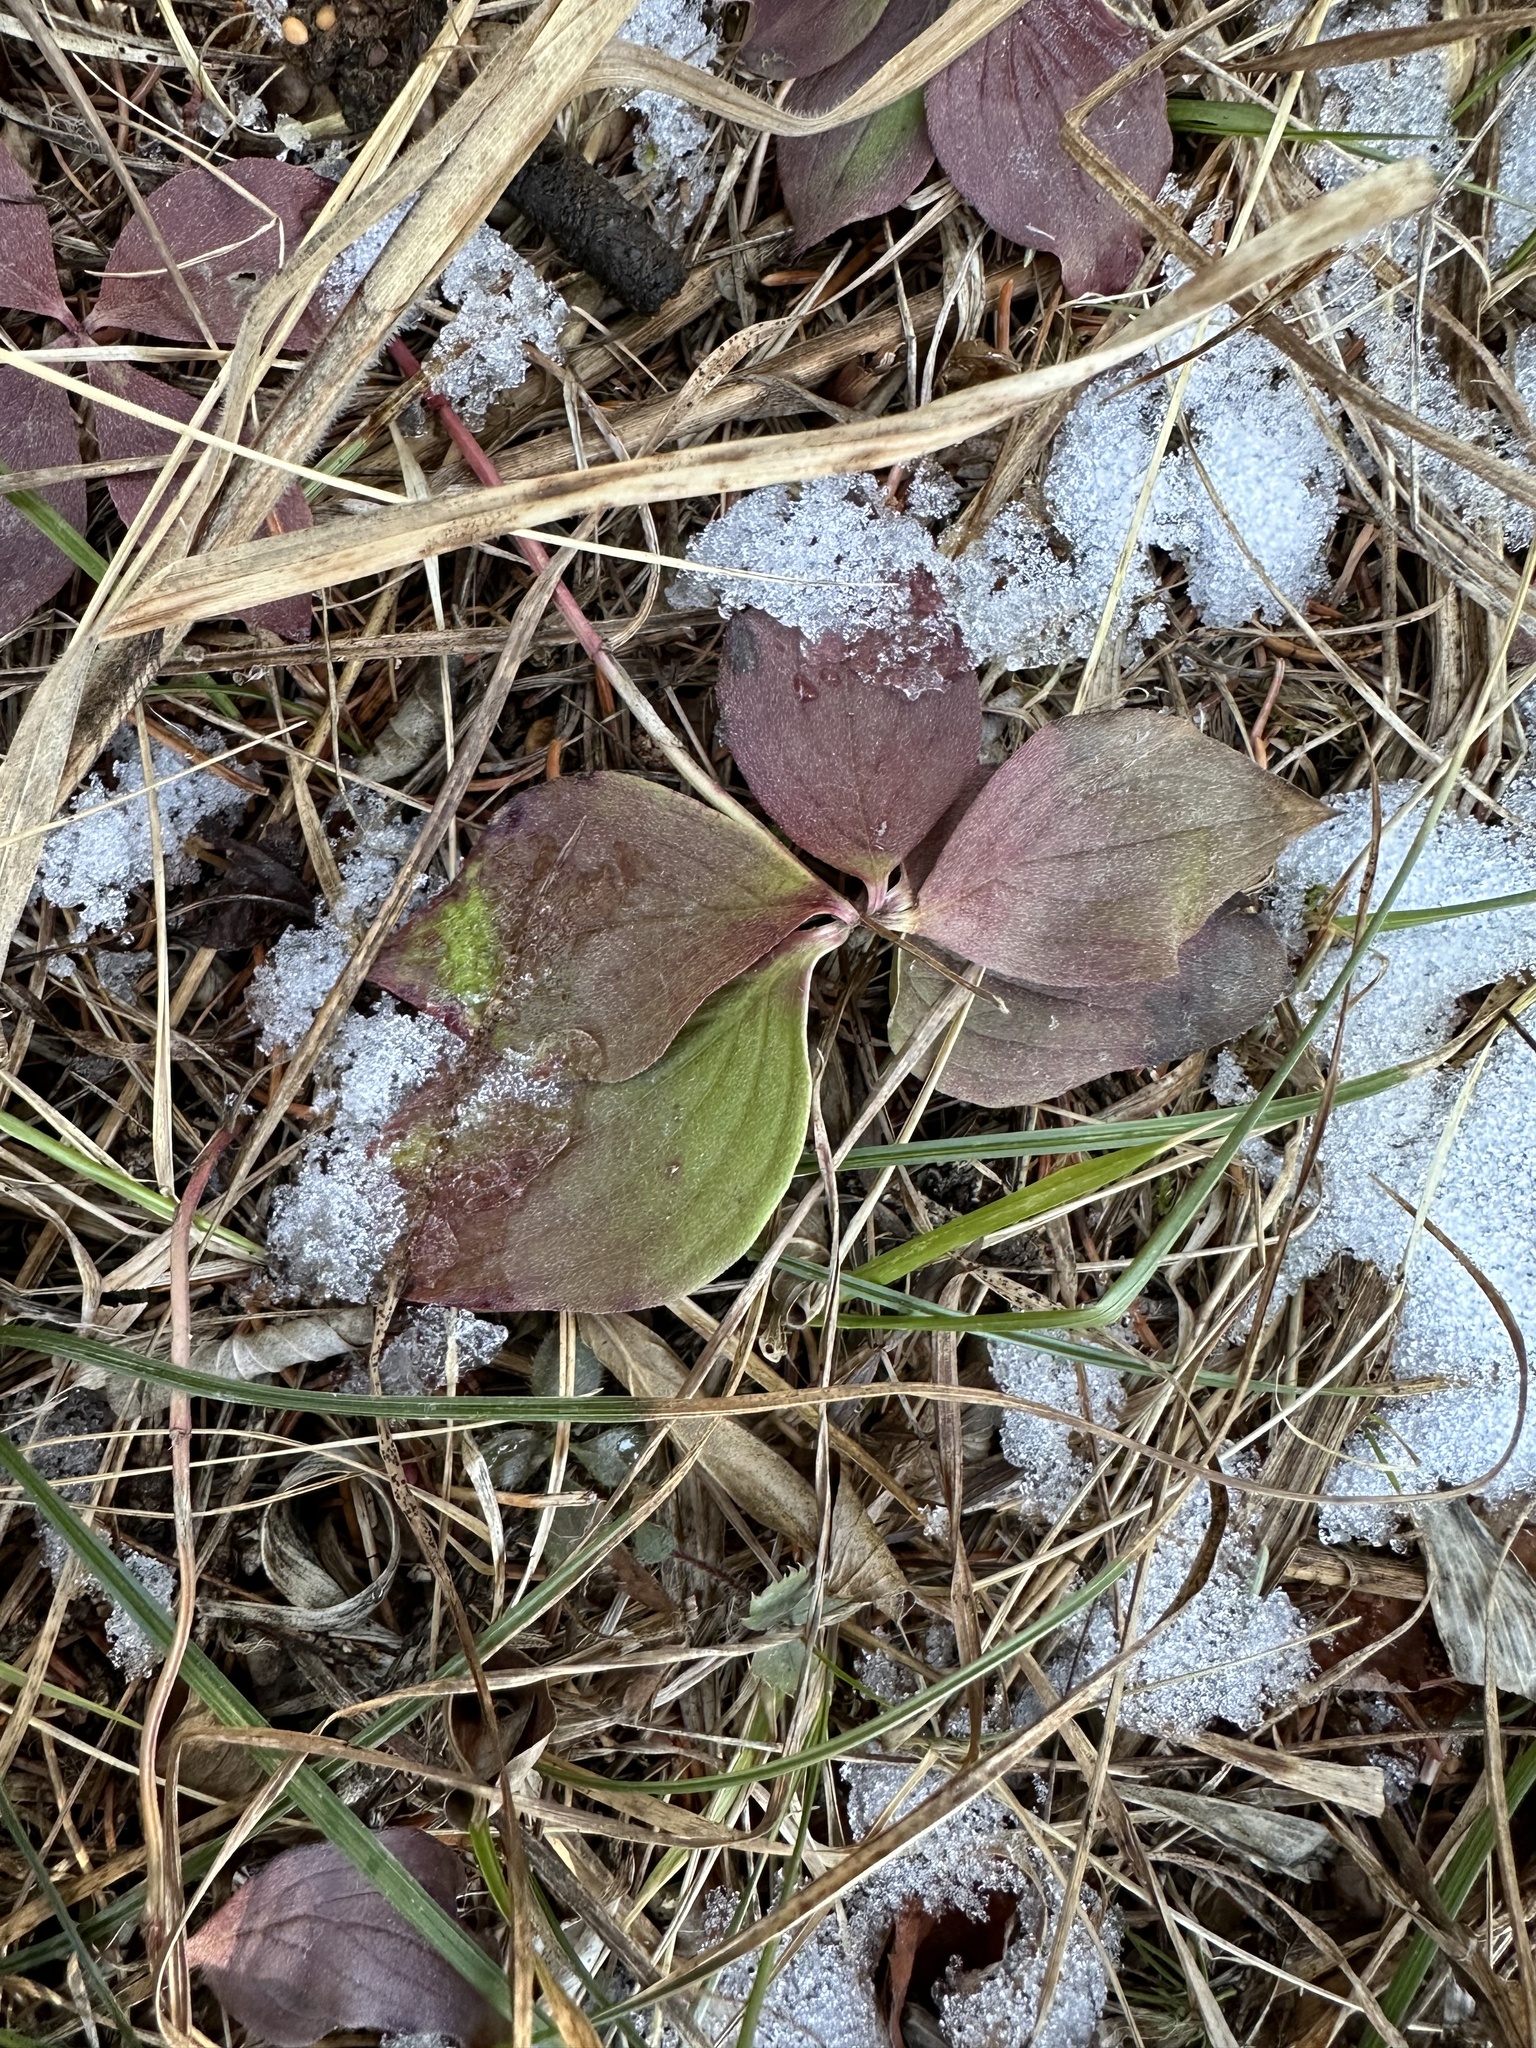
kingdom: Plantae
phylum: Tracheophyta
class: Magnoliopsida
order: Cornales
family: Cornaceae
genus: Cornus
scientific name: Cornus canadensis
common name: Creeping dogwood
